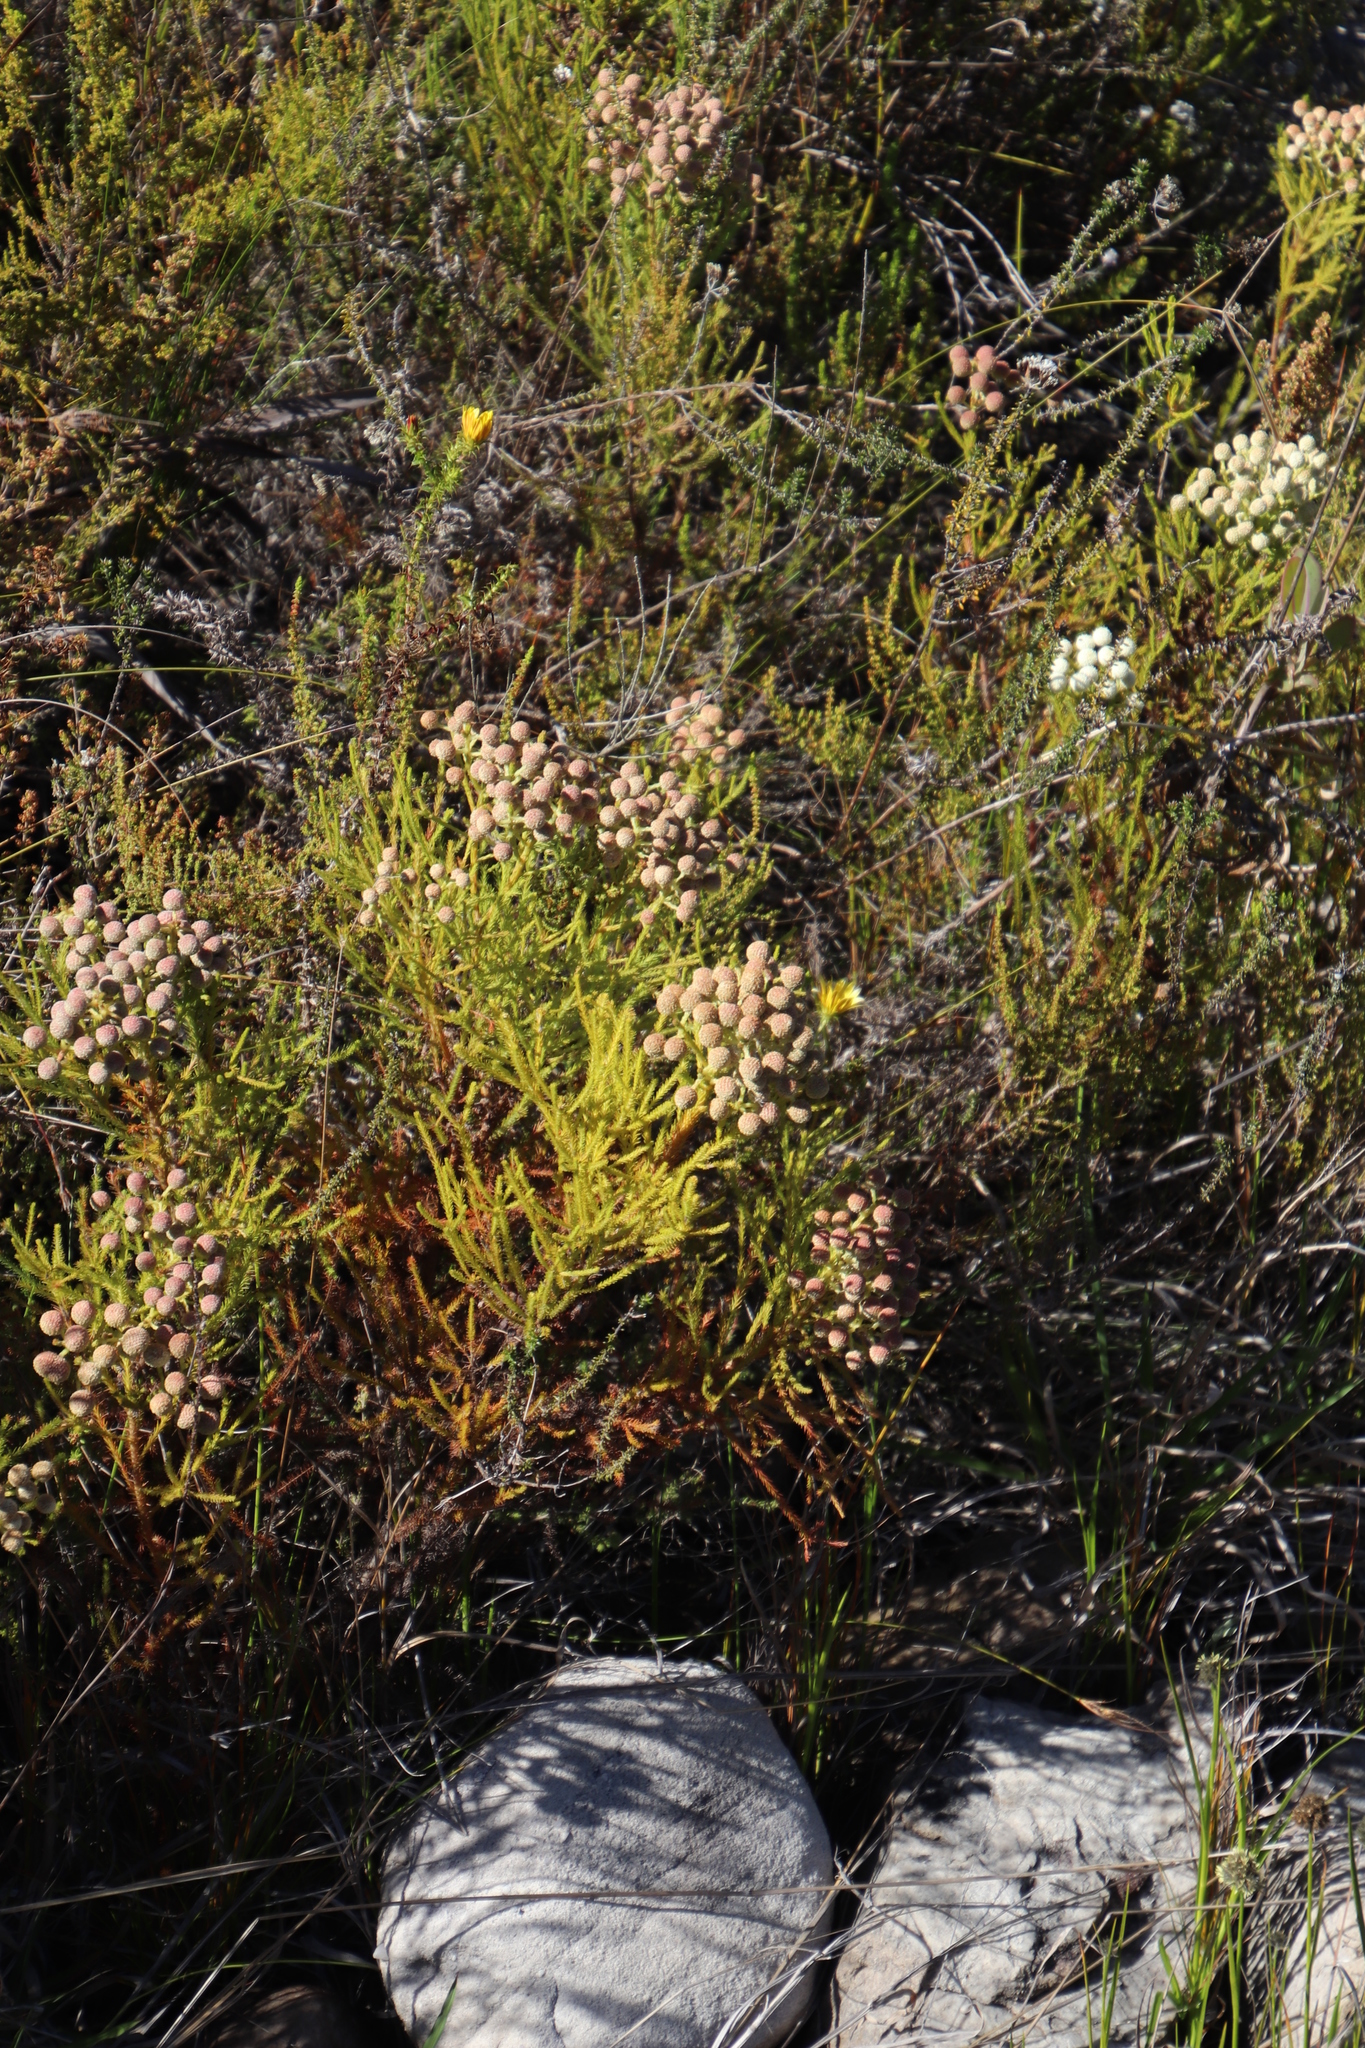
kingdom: Plantae
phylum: Tracheophyta
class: Magnoliopsida
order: Bruniales
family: Bruniaceae
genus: Berzelia
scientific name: Berzelia abrotanoides
